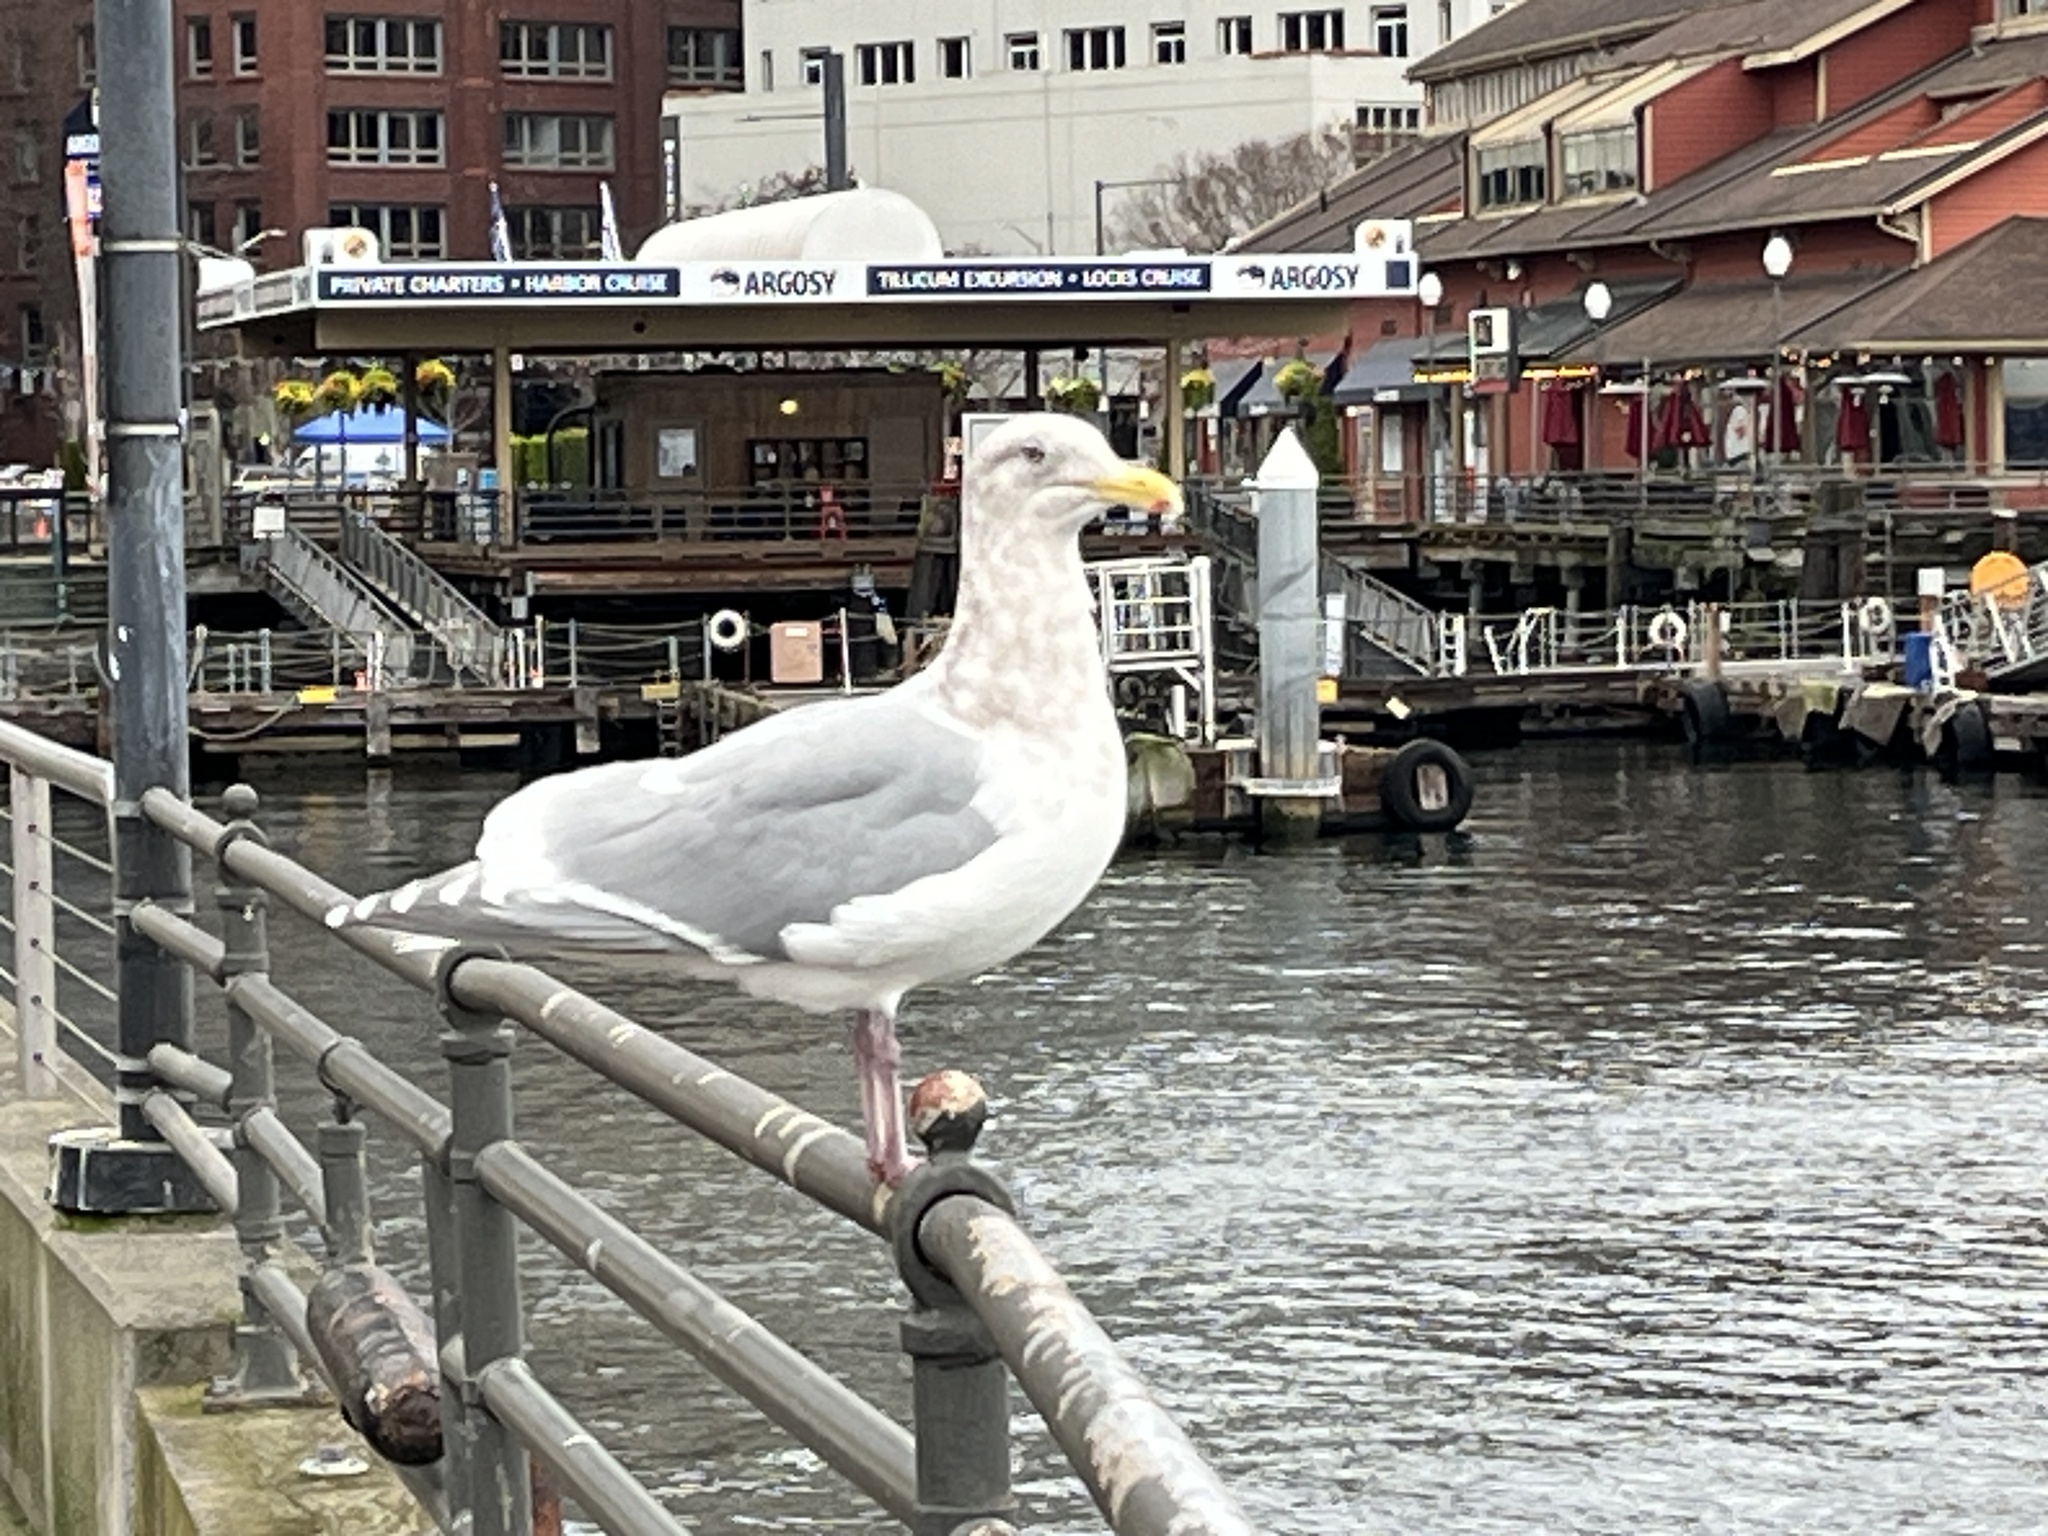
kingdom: Animalia
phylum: Chordata
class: Aves
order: Charadriiformes
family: Laridae
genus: Larus
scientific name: Larus glaucescens
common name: Glaucous-winged gull
